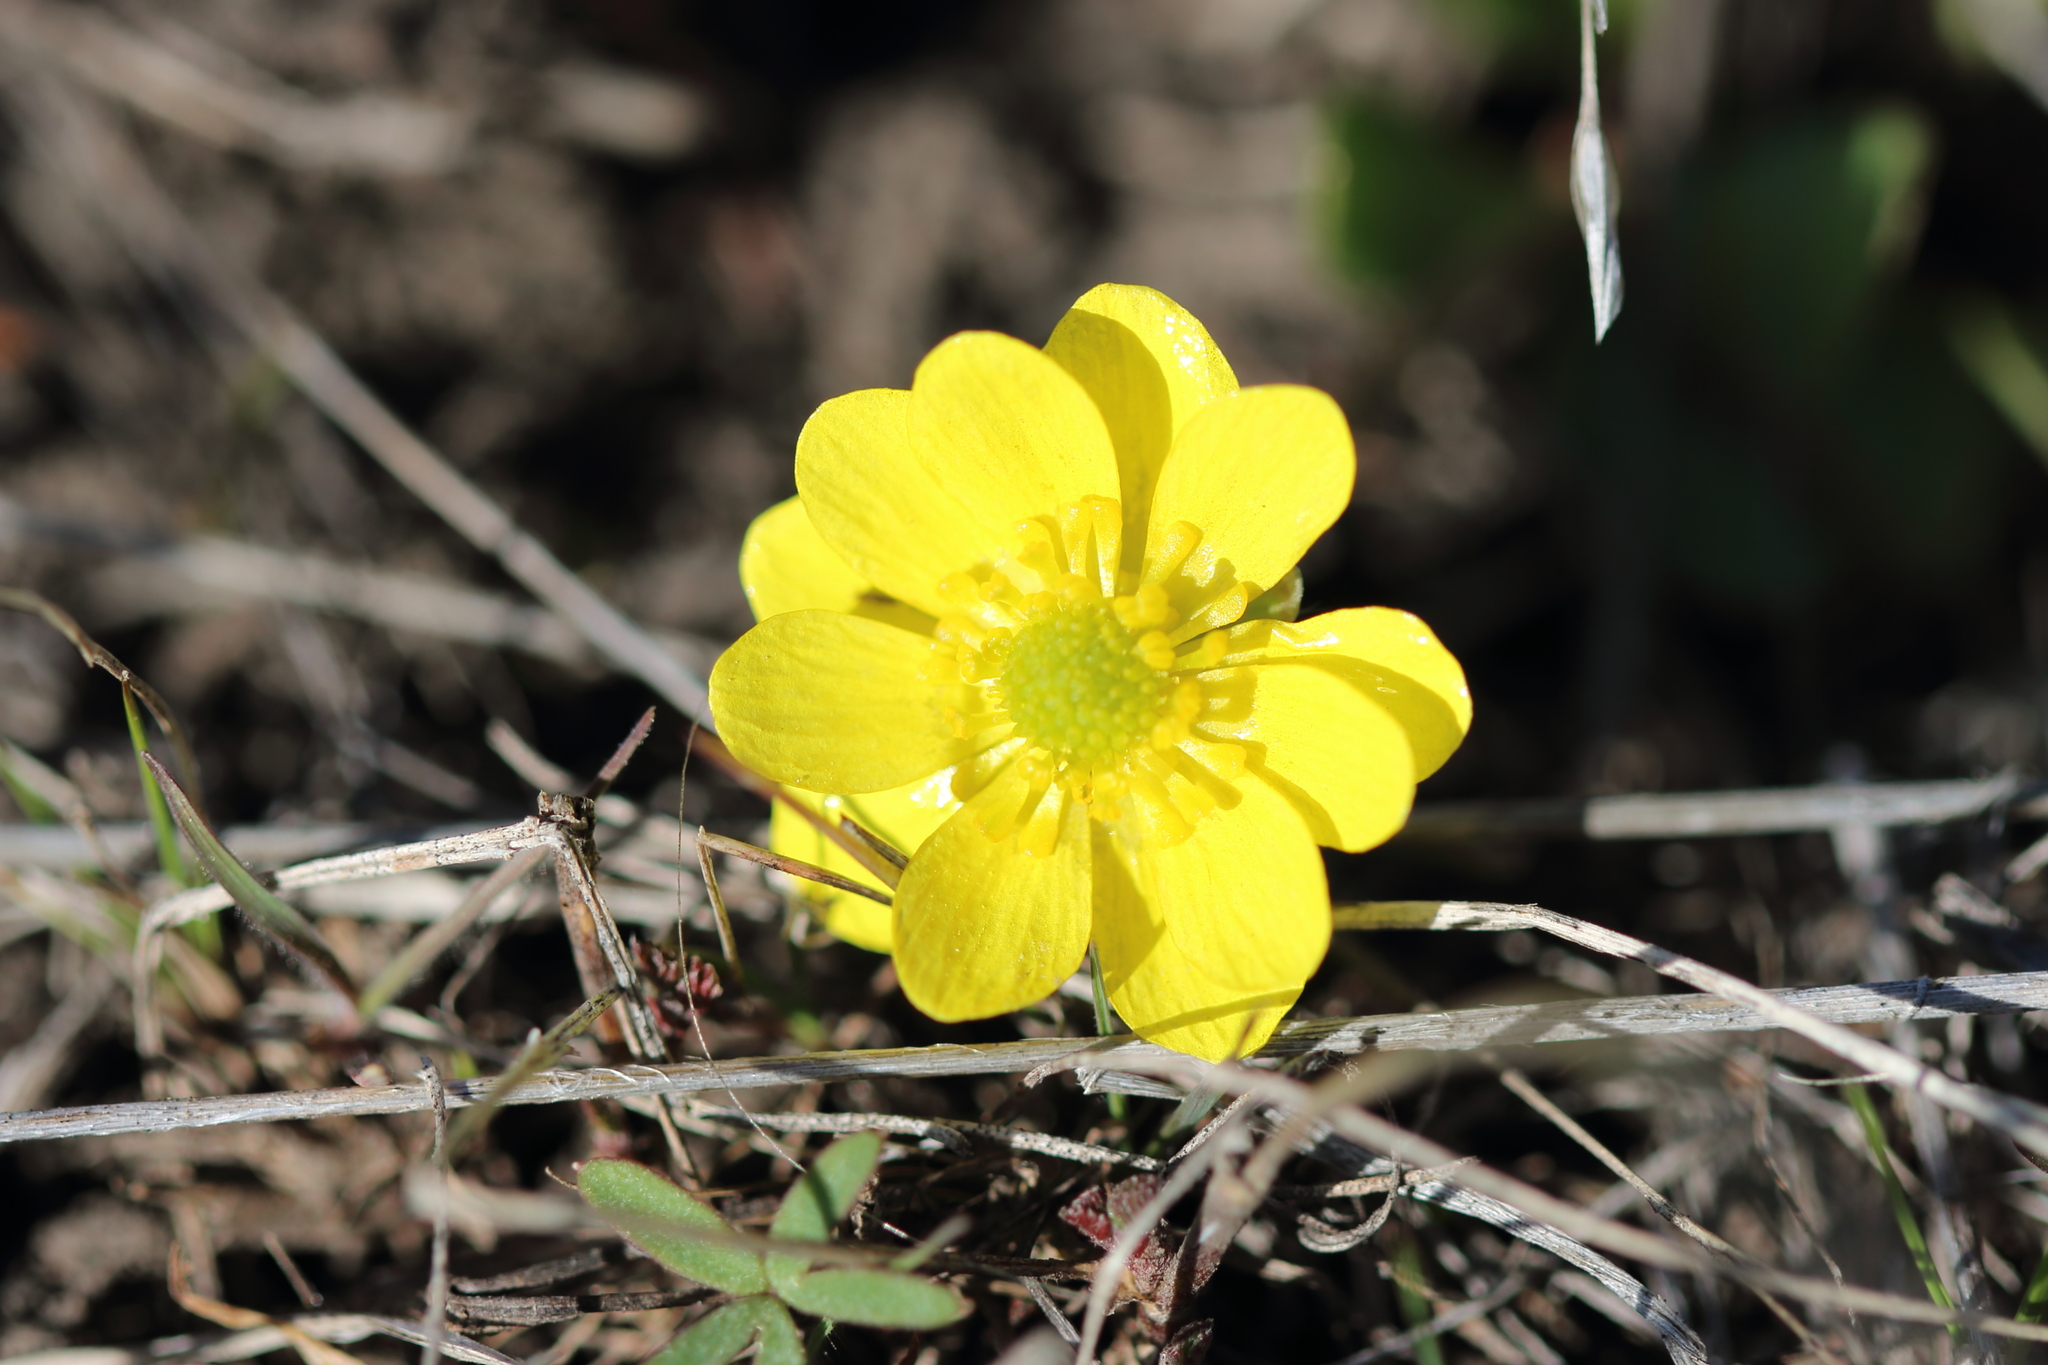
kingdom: Plantae
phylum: Tracheophyta
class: Magnoliopsida
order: Ranunculales
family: Ranunculaceae
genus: Ranunculus
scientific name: Ranunculus glaberrimus
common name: Sagebrush buttercup
